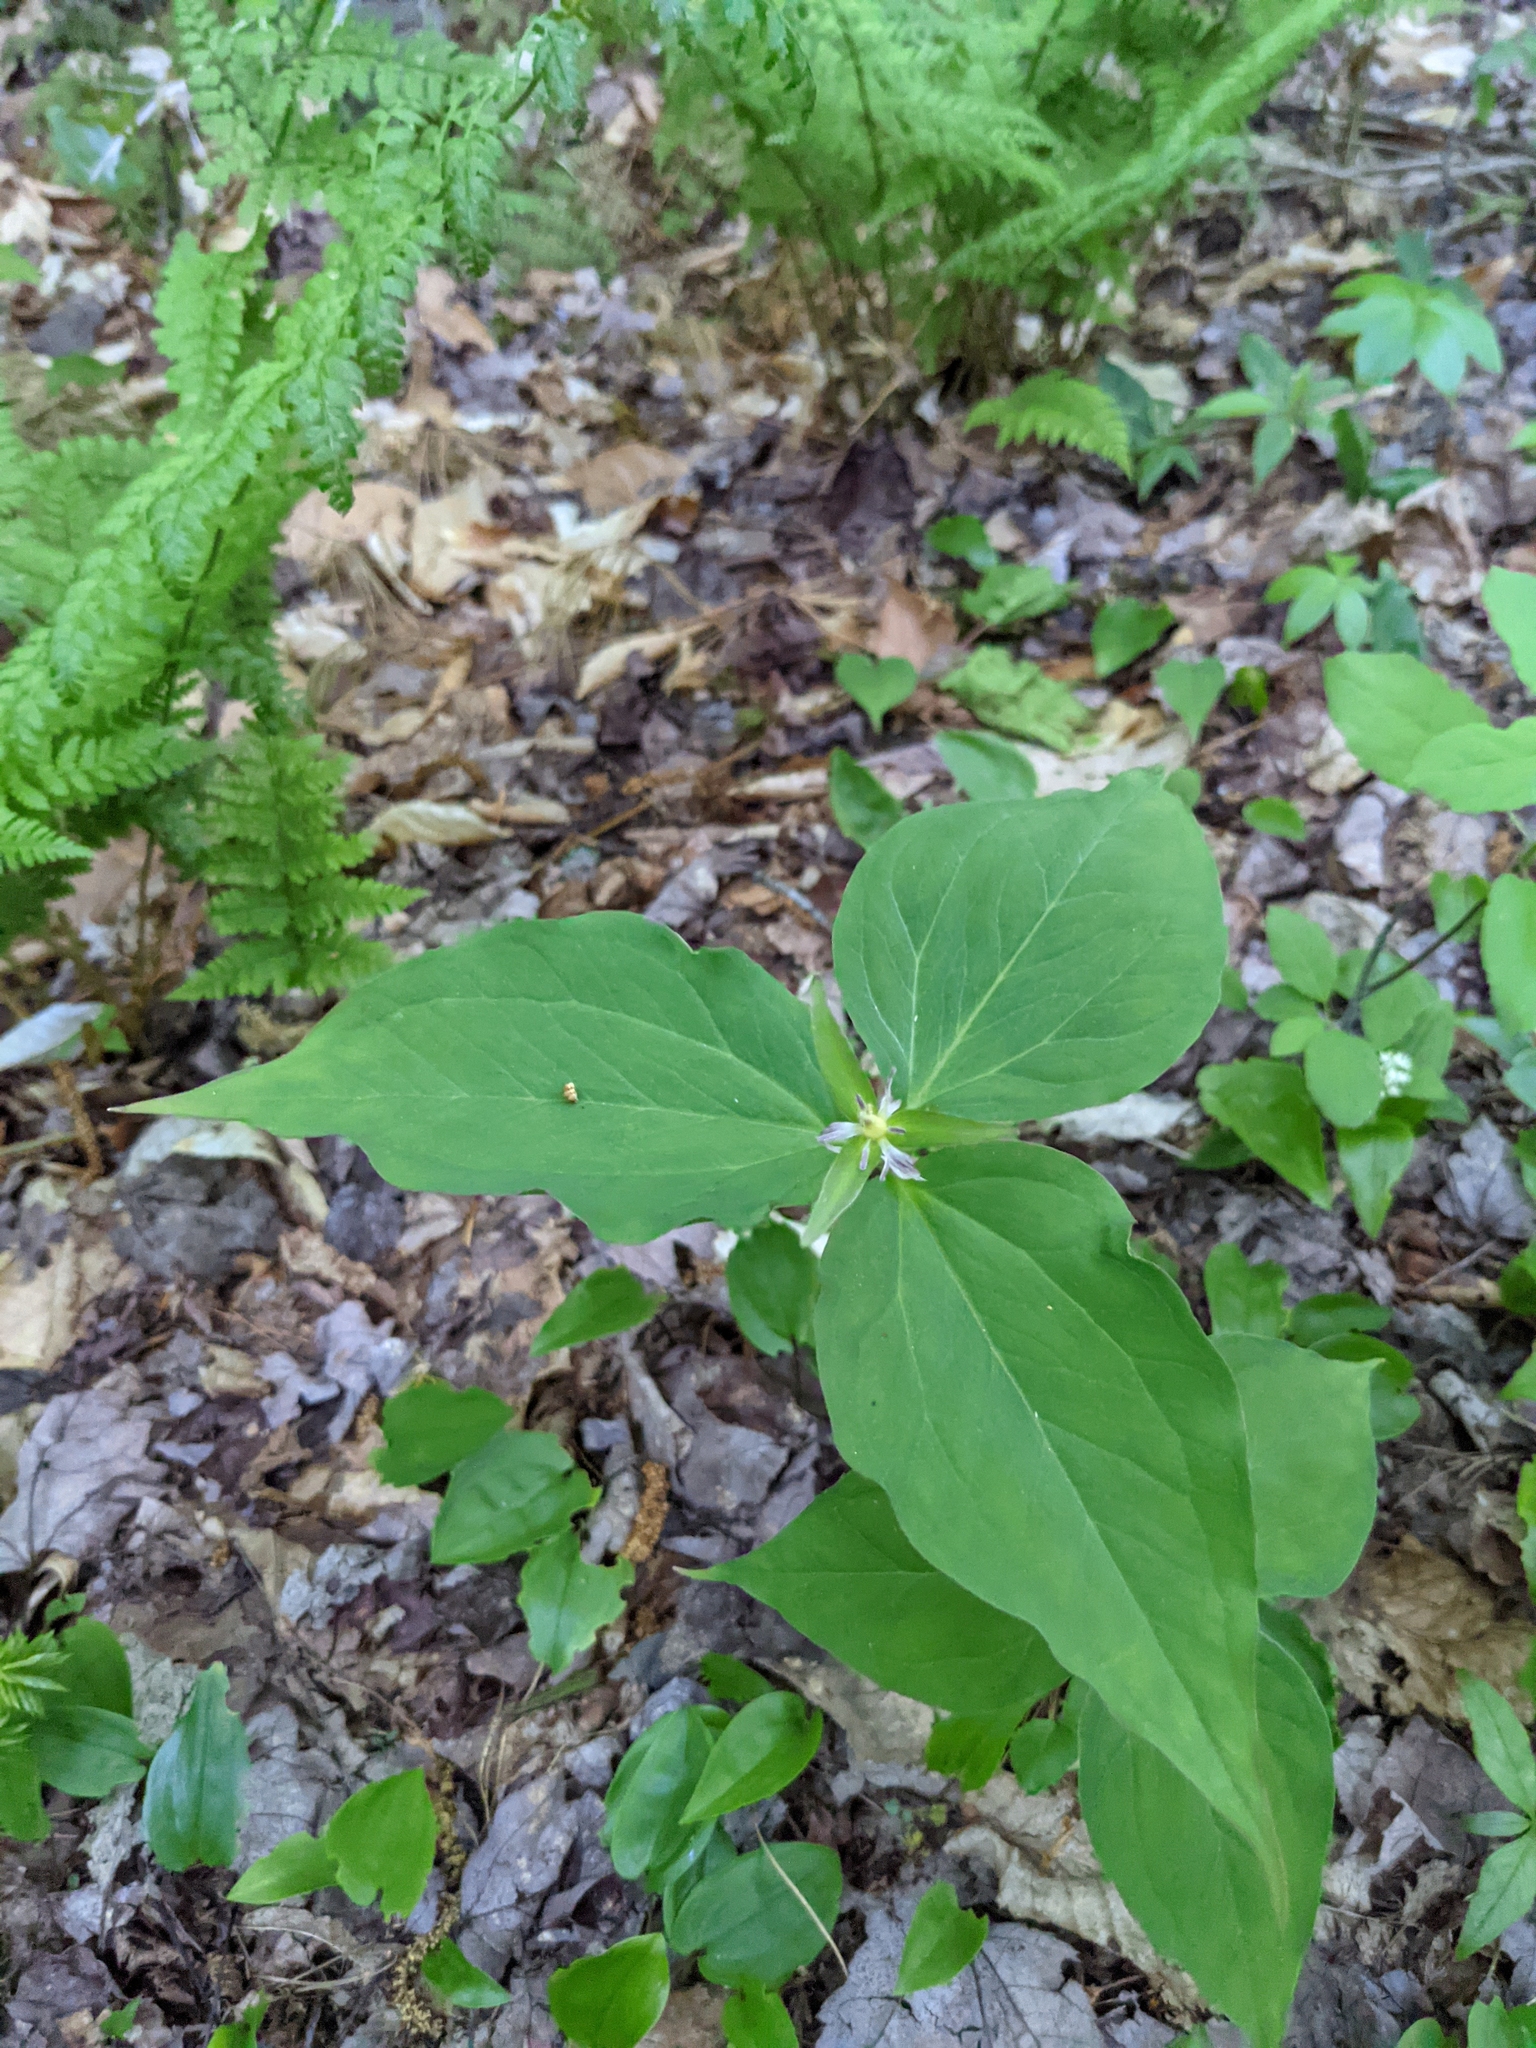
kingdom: Plantae
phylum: Tracheophyta
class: Liliopsida
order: Liliales
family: Melanthiaceae
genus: Trillium
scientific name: Trillium undulatum
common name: Paint trillium
